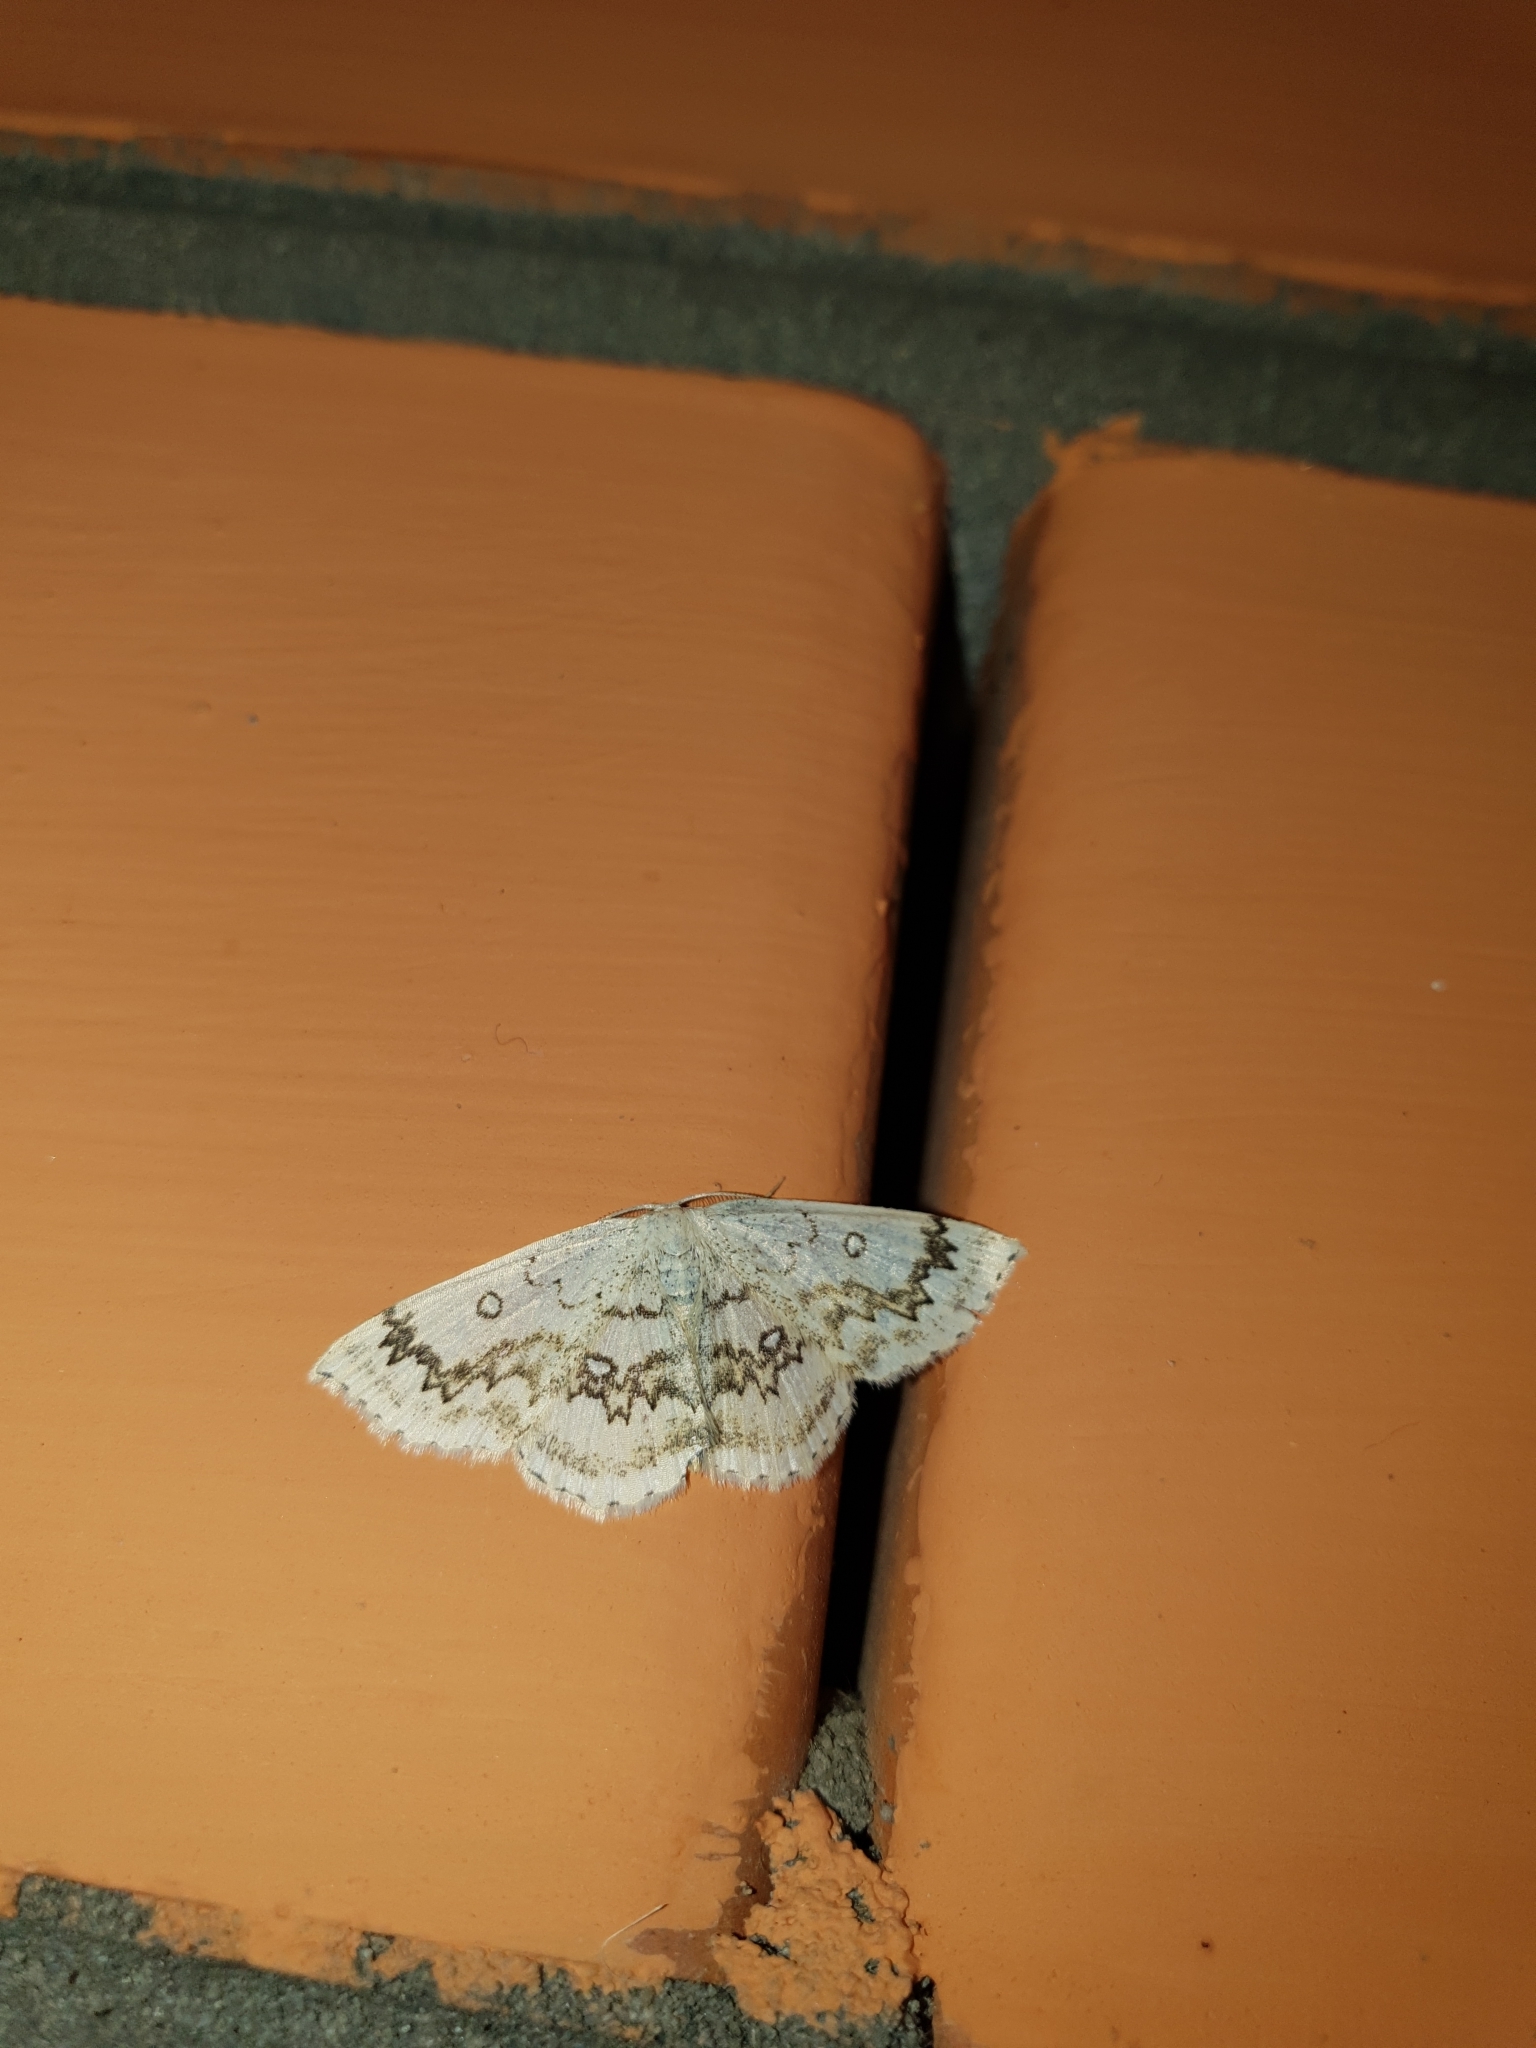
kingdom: Animalia
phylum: Arthropoda
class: Insecta
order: Lepidoptera
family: Geometridae
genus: Cyclophora
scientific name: Cyclophora annularia
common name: Mocha
